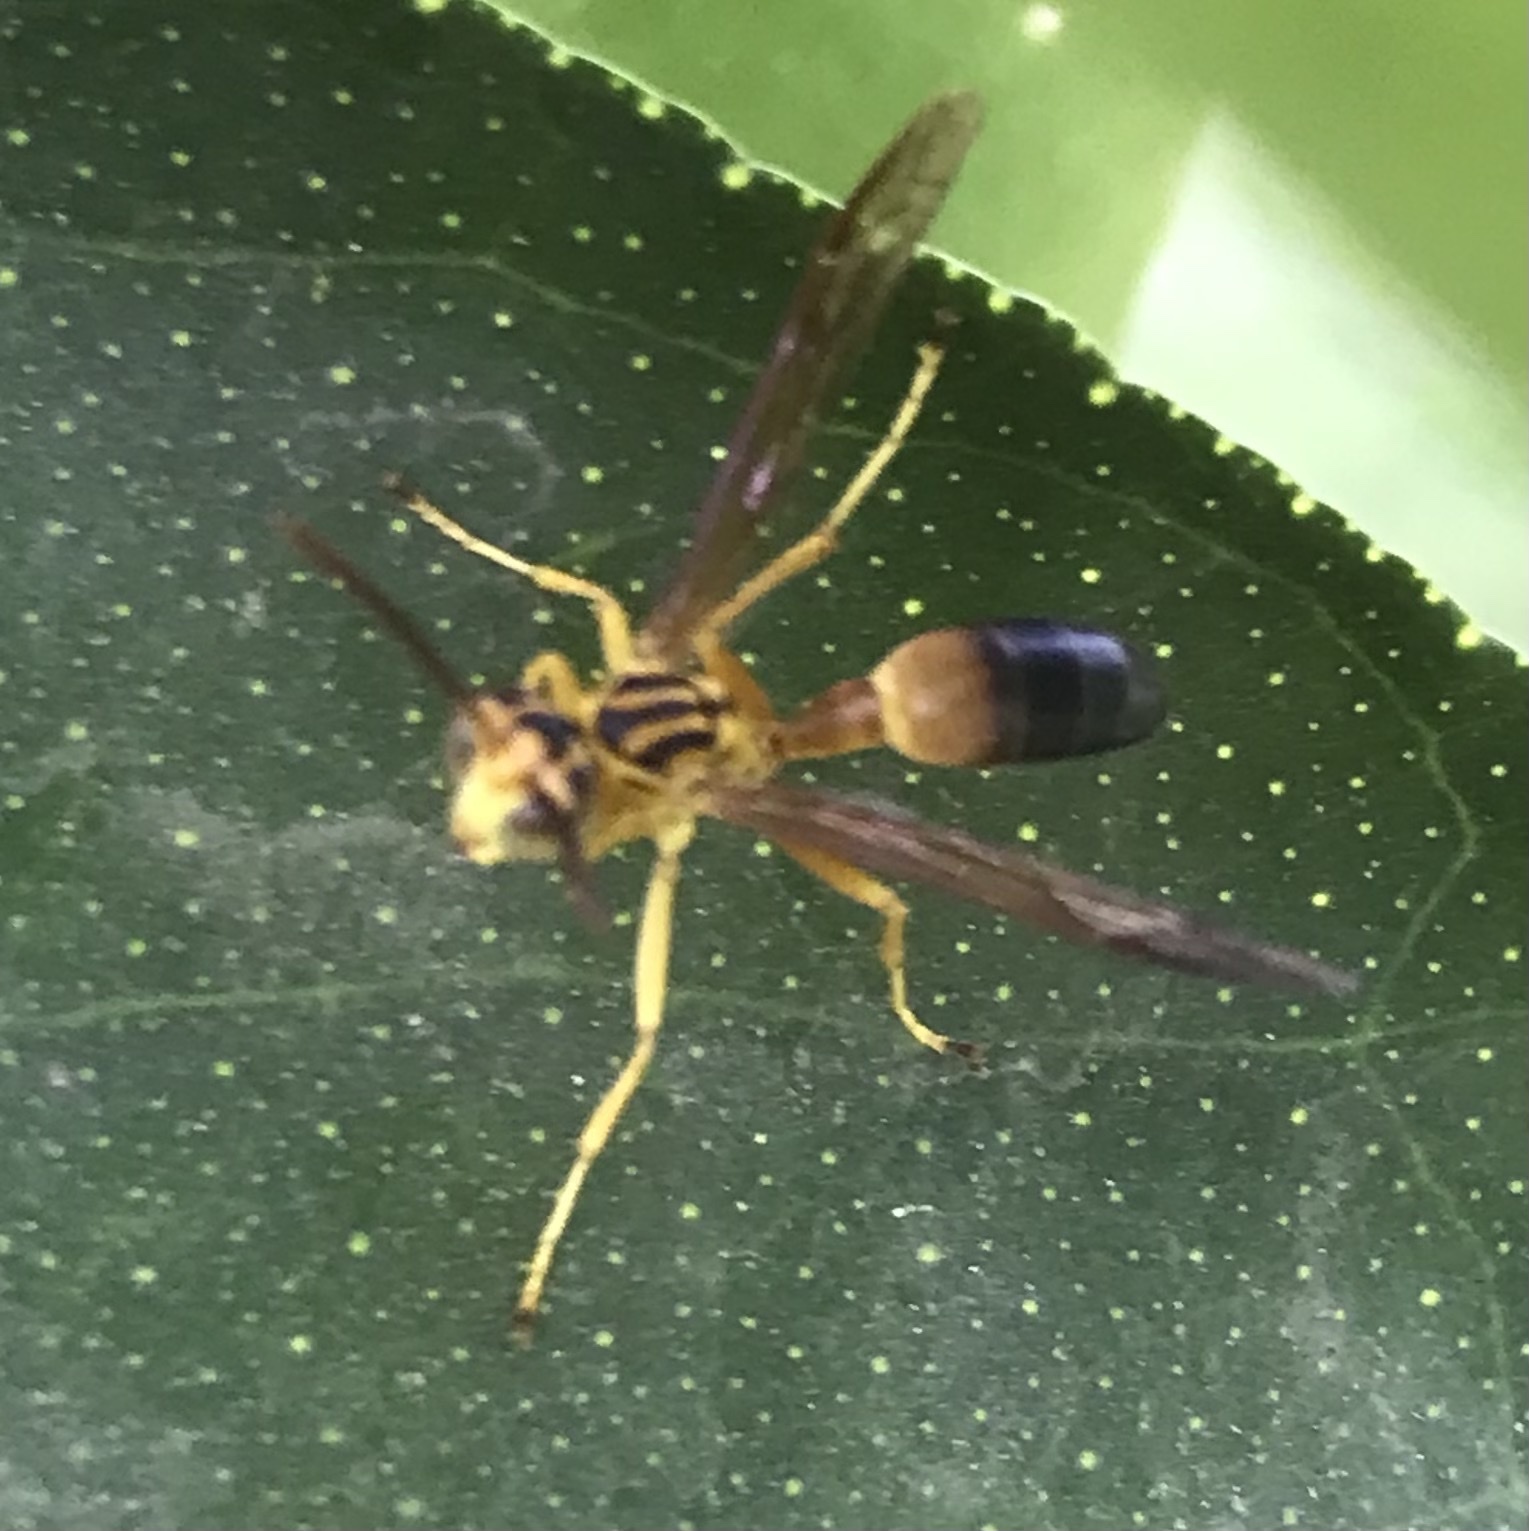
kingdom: Animalia
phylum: Arthropoda
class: Insecta
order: Hymenoptera
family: Vespidae
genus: Agelaia
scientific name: Agelaia pallipes
